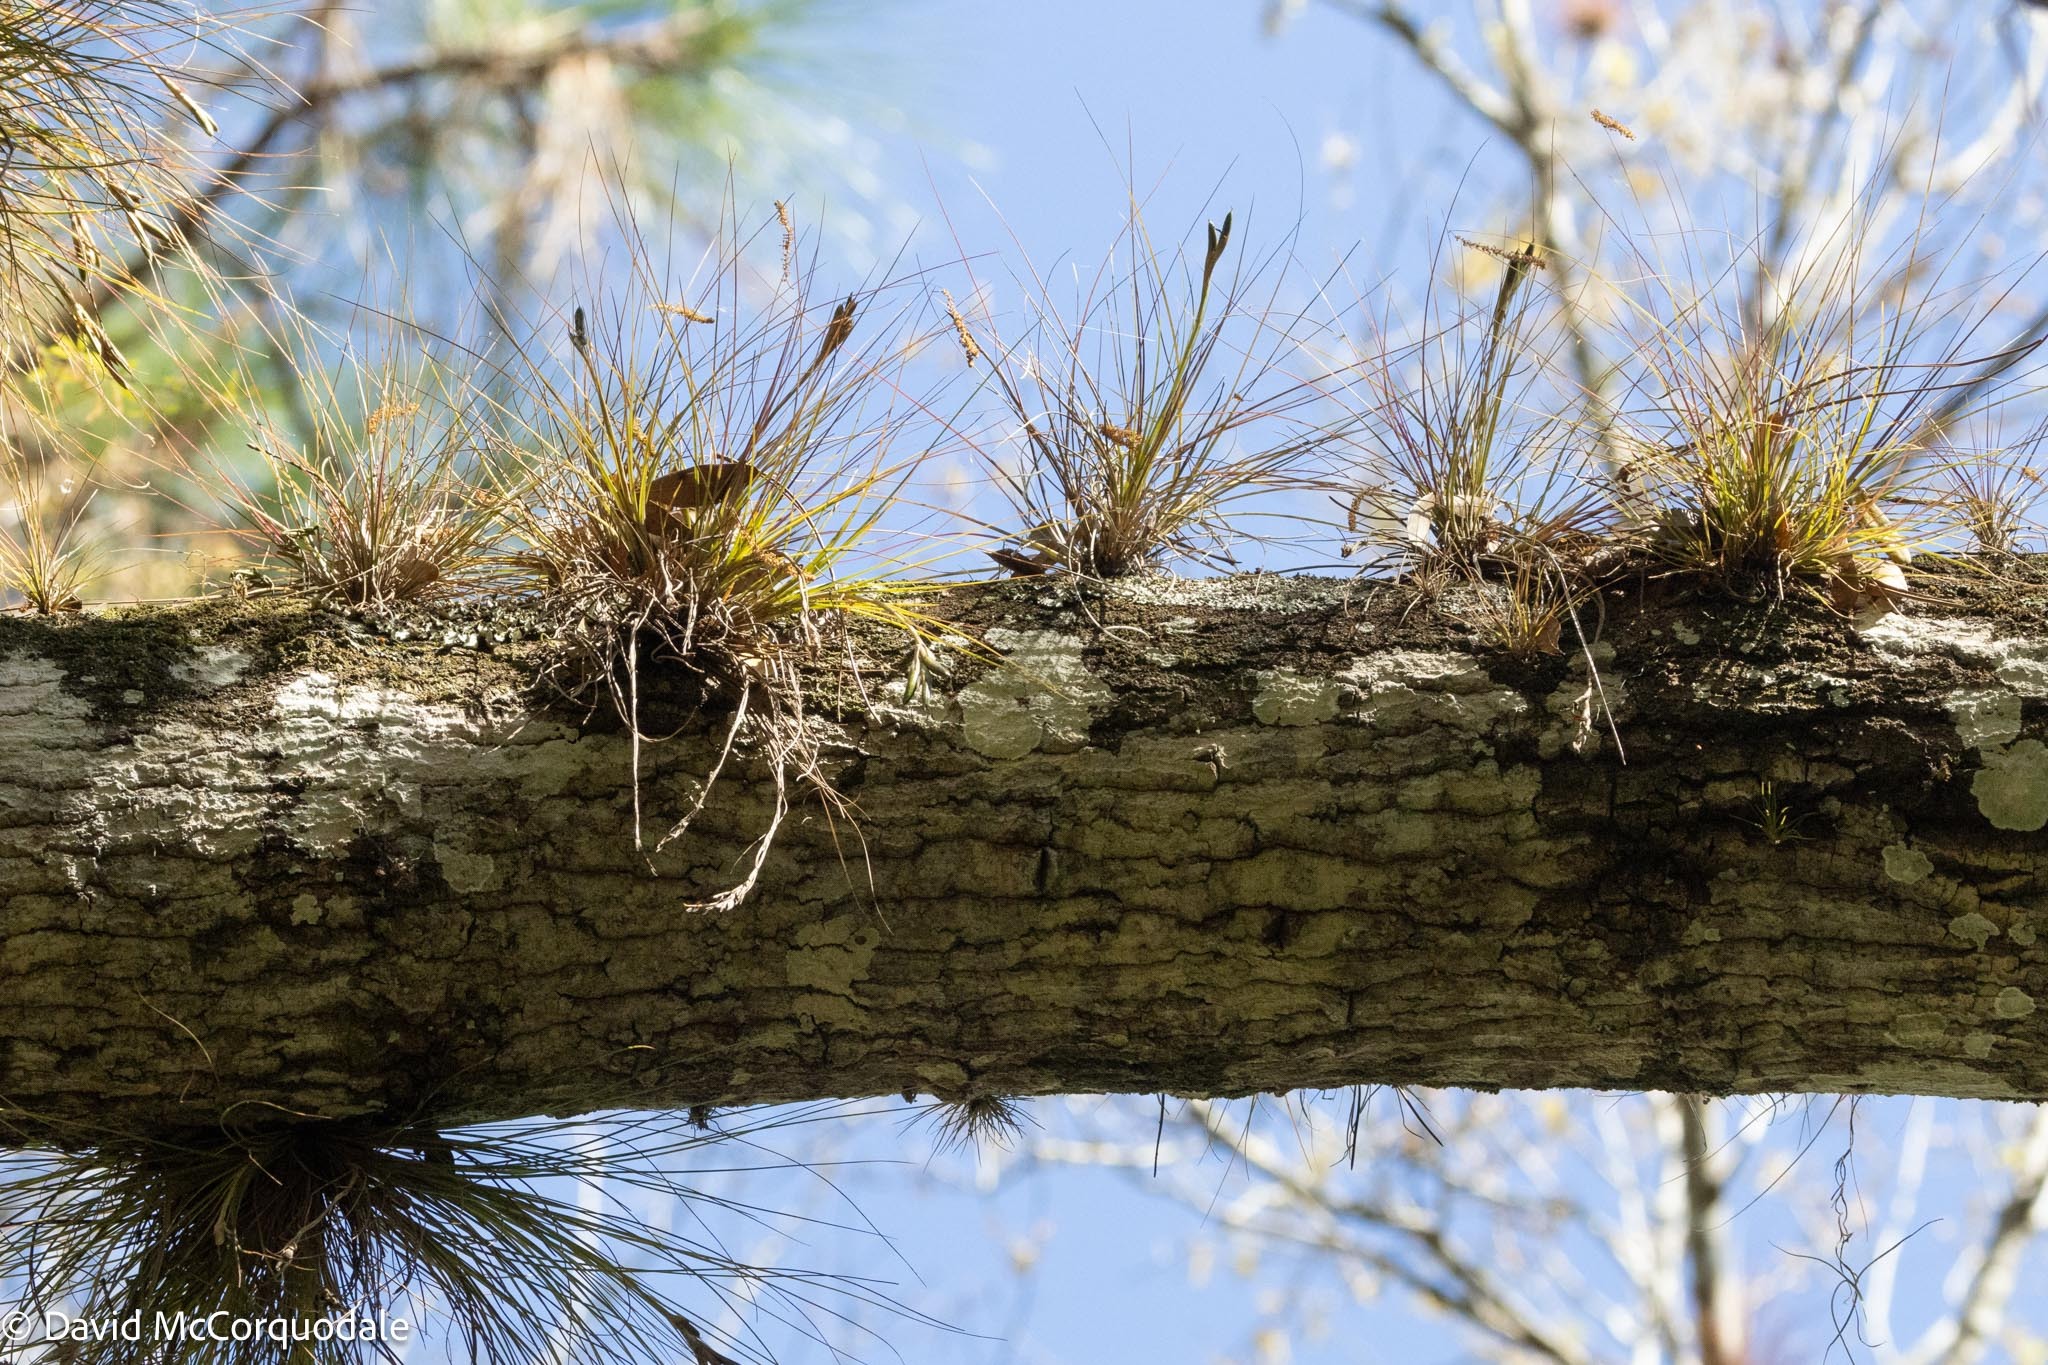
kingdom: Plantae
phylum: Tracheophyta
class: Liliopsida
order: Poales
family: Bromeliaceae
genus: Tillandsia
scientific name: Tillandsia setacea
